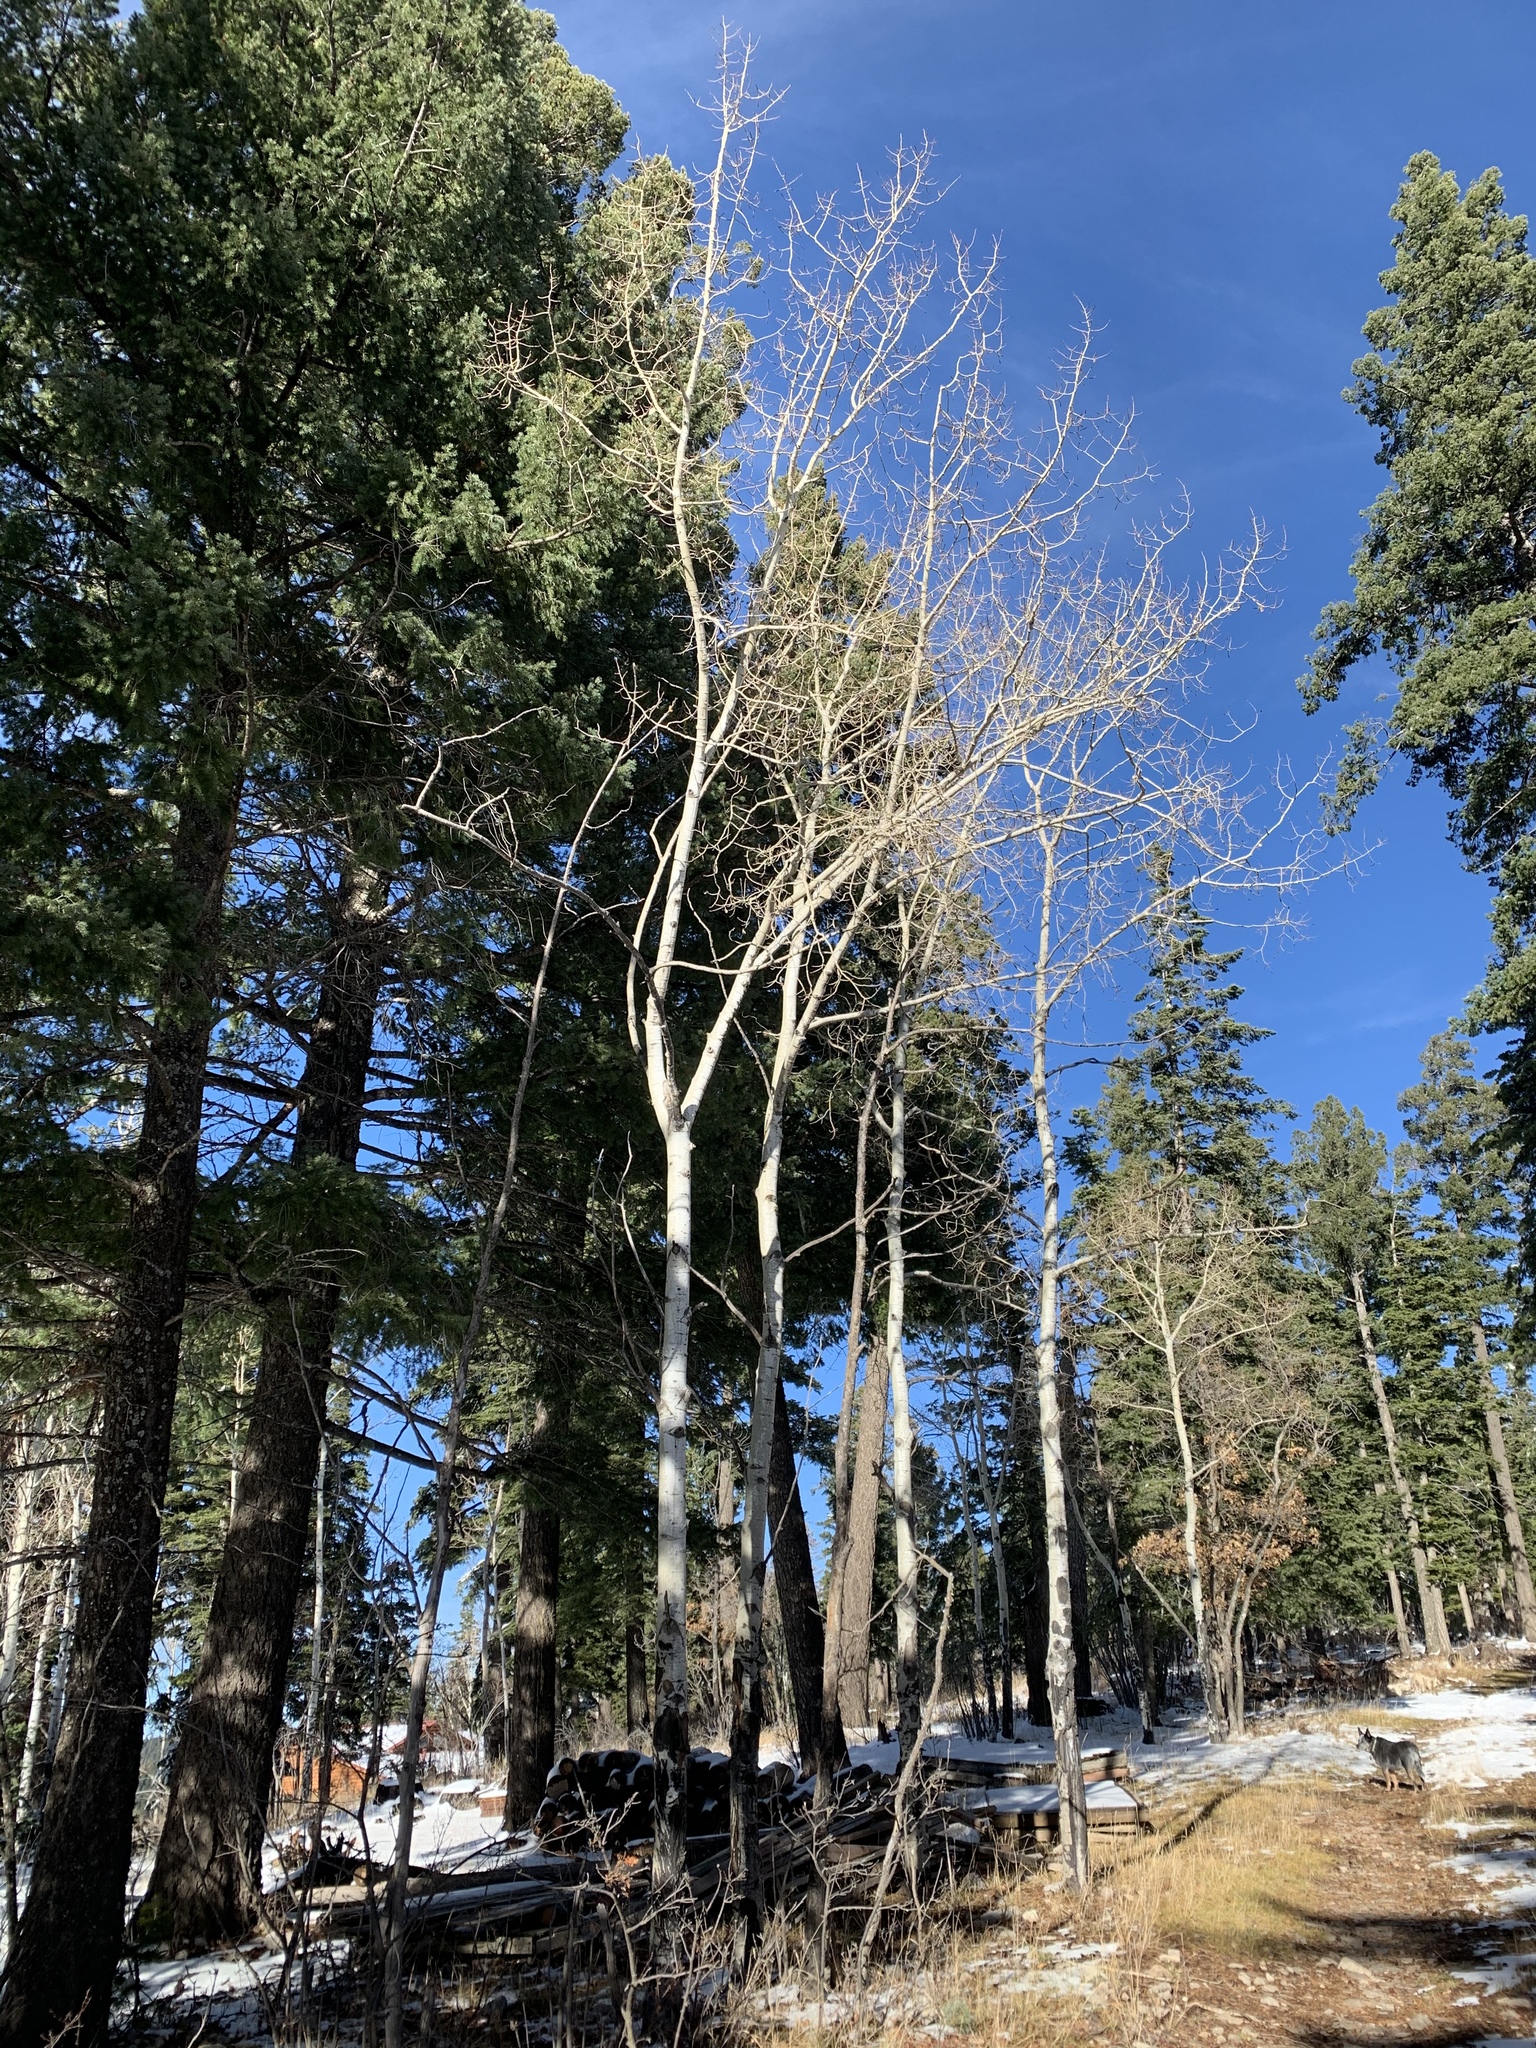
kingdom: Plantae
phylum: Tracheophyta
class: Magnoliopsida
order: Malpighiales
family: Salicaceae
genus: Populus
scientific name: Populus tremuloides
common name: Quaking aspen
